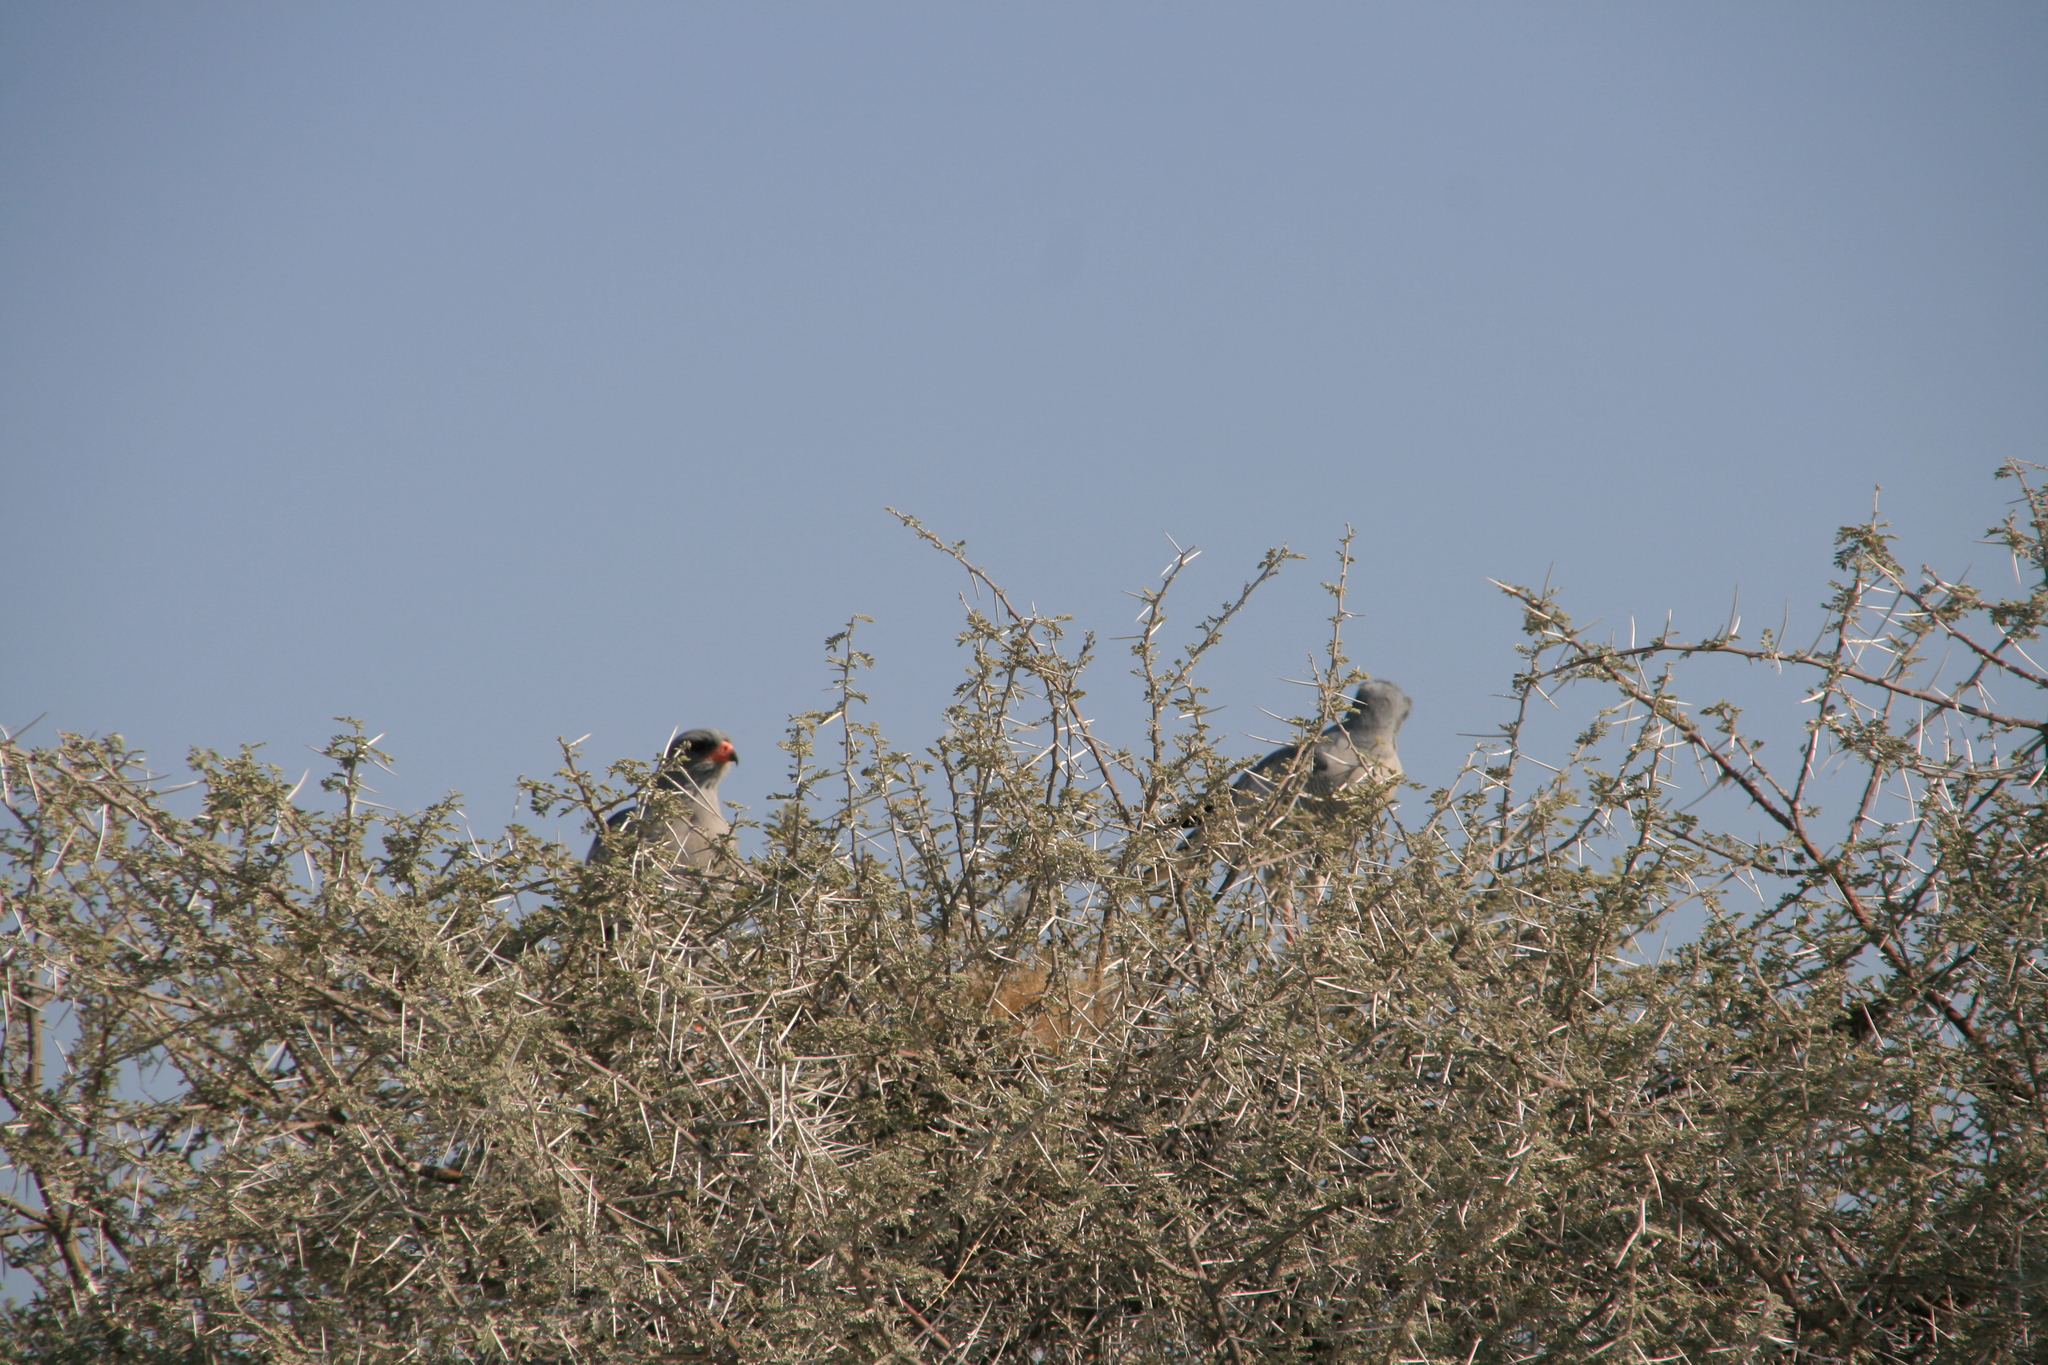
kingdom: Animalia
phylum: Chordata
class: Aves
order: Accipitriformes
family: Accipitridae
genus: Melierax
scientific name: Melierax canorus
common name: Pale chanting-goshawk
